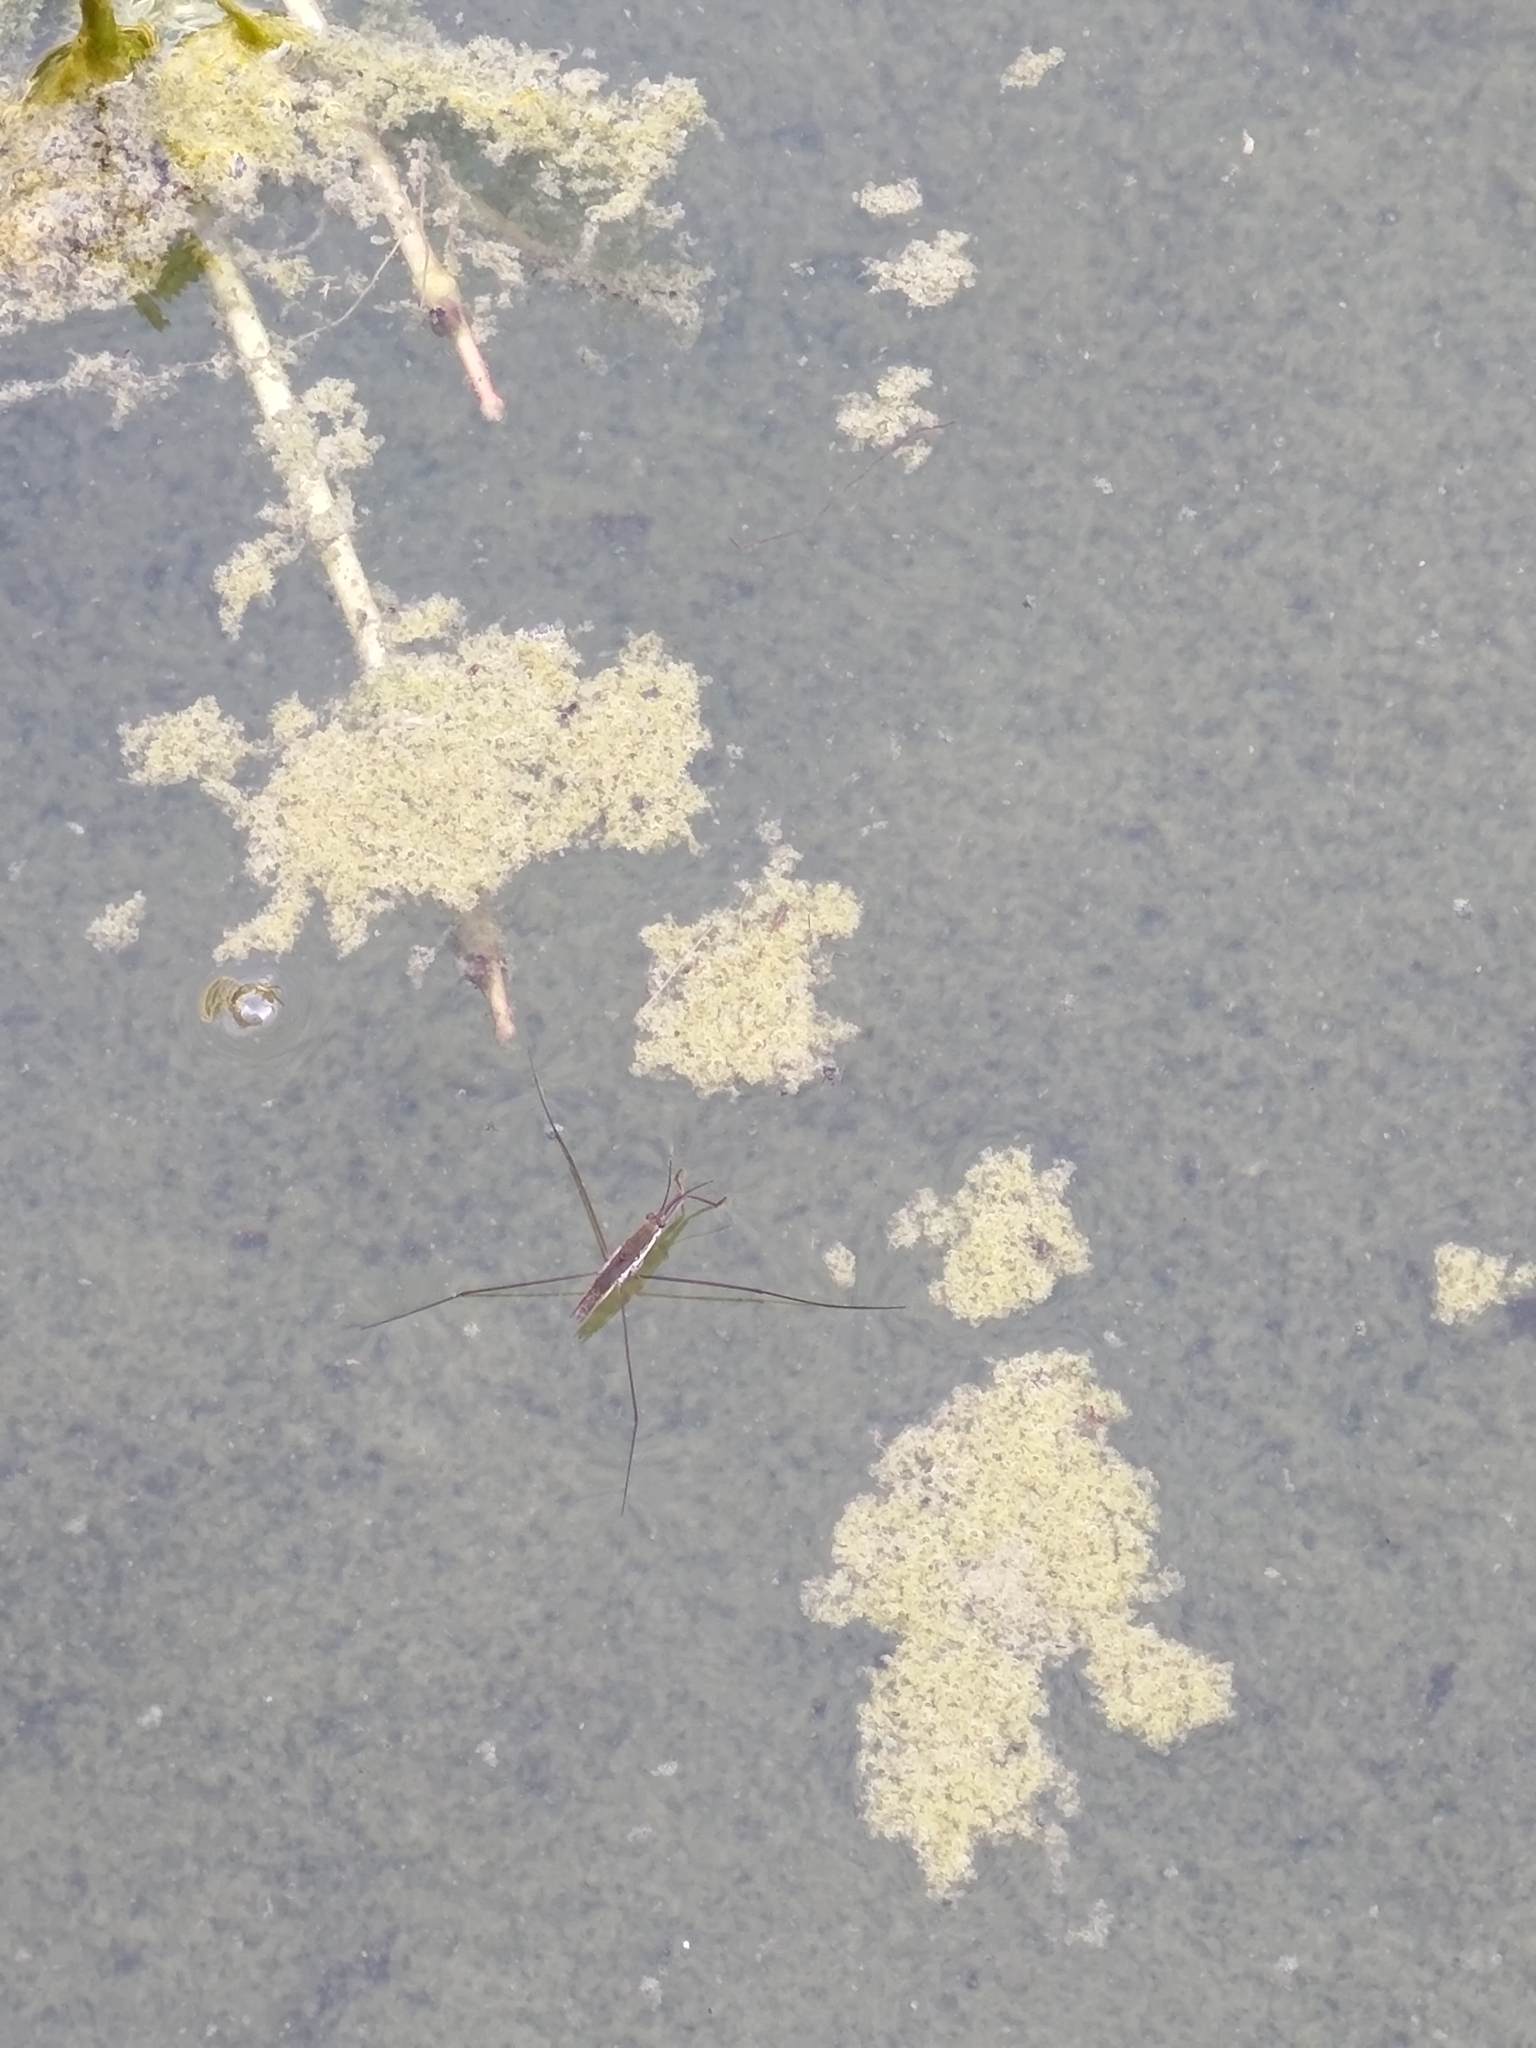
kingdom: Animalia
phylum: Arthropoda
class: Insecta
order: Hemiptera
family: Gerridae
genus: Aquarius
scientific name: Aquarius paludum
